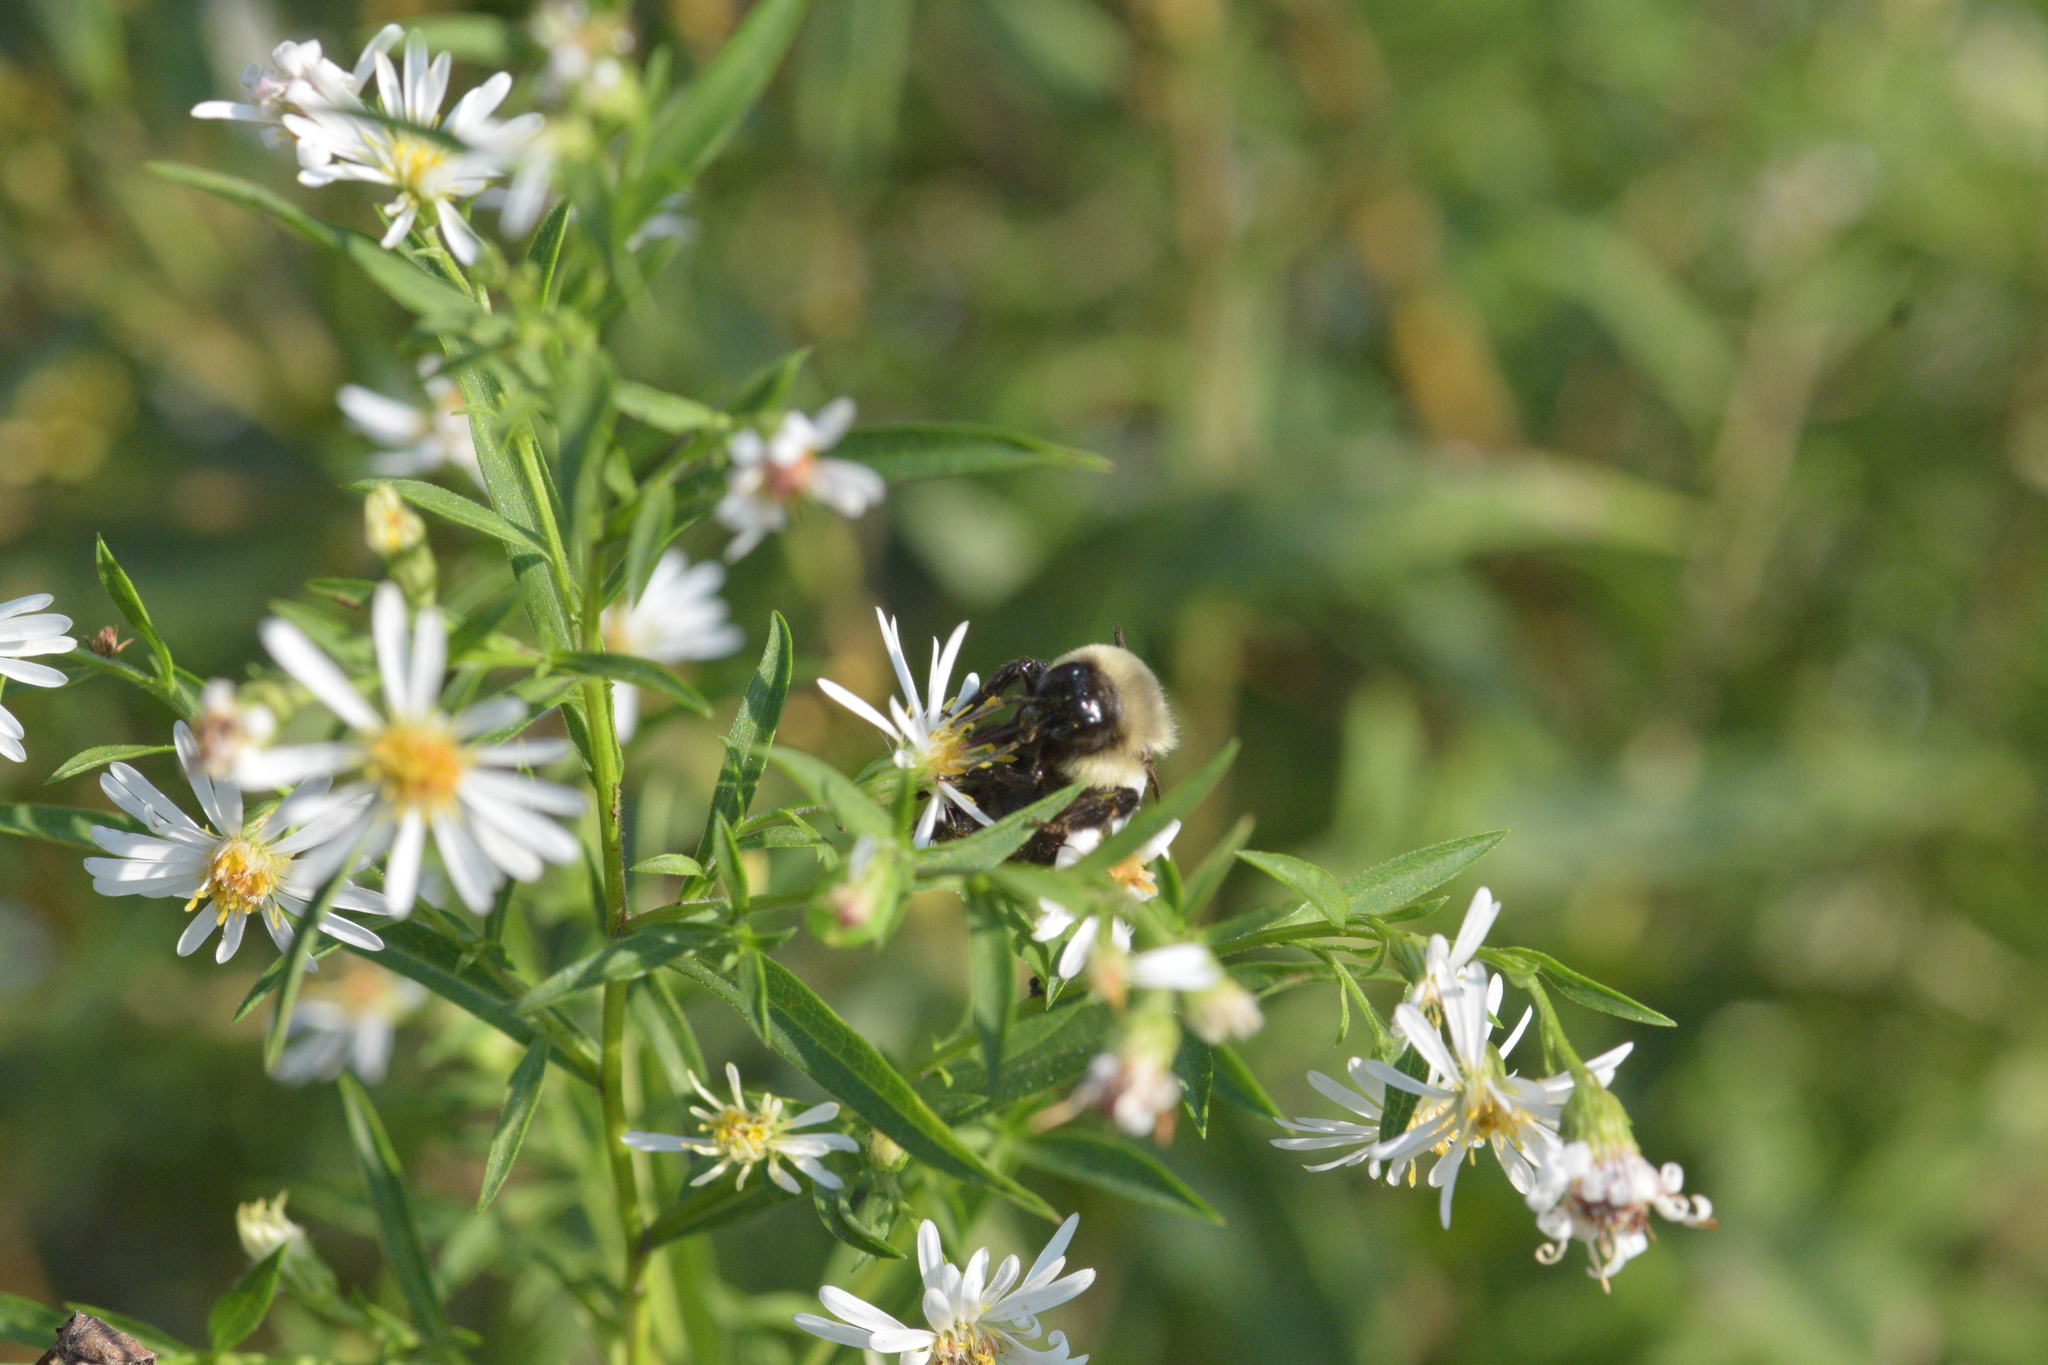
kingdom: Animalia
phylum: Arthropoda
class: Insecta
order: Hymenoptera
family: Apidae
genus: Bombus
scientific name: Bombus impatiens
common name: Common eastern bumble bee
